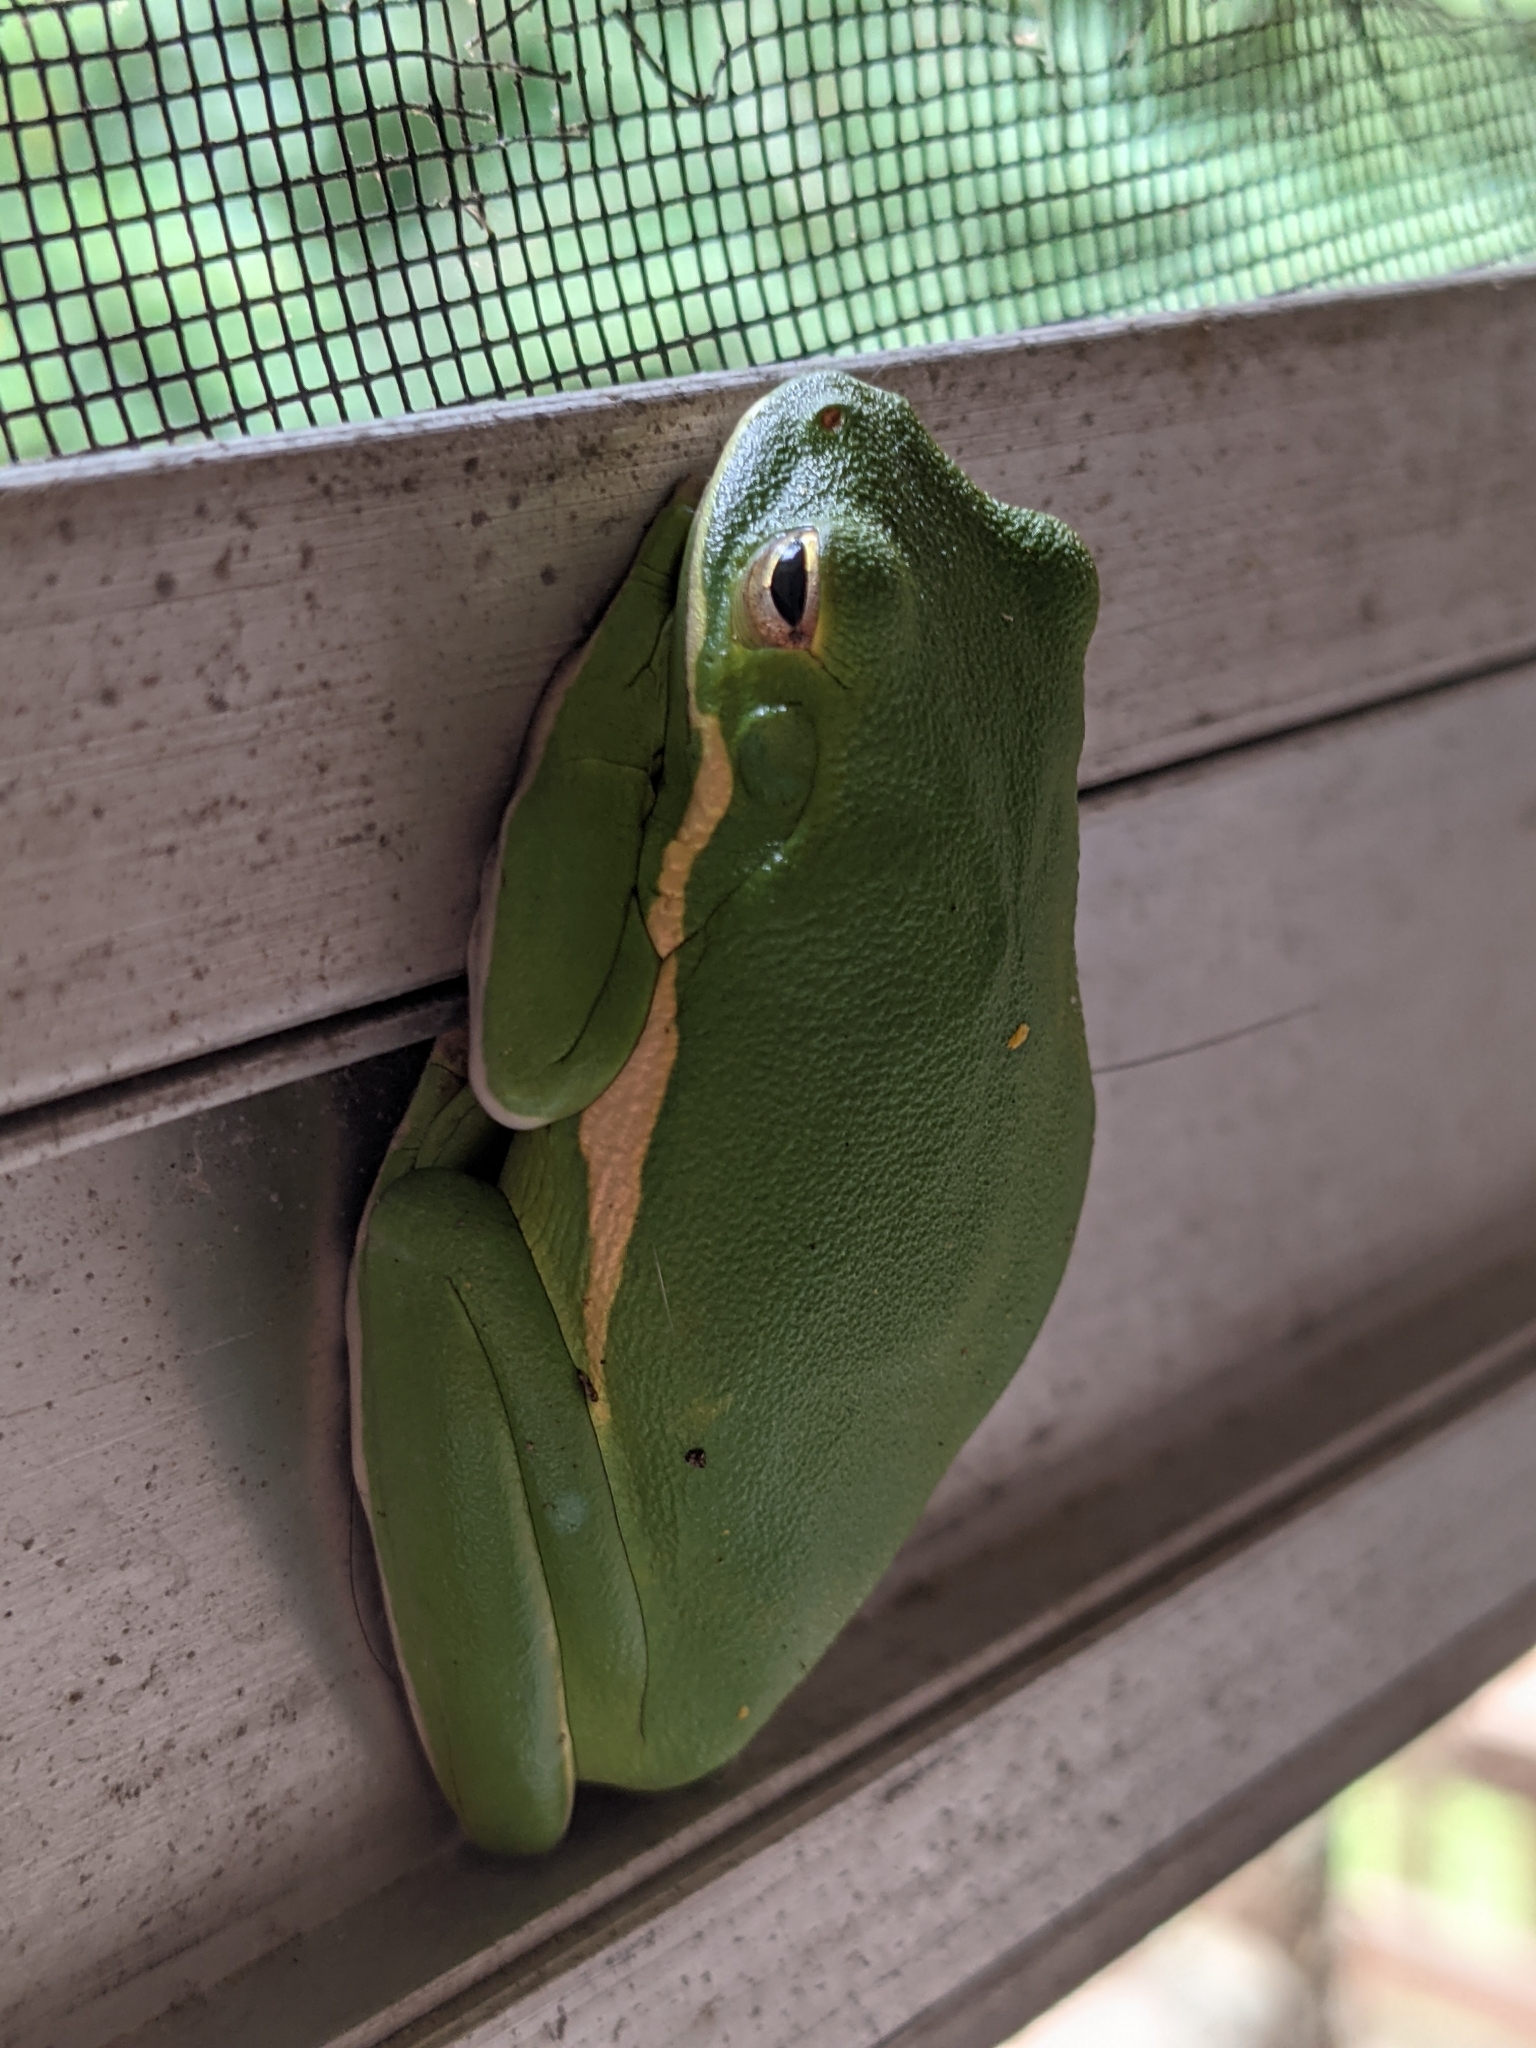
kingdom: Animalia
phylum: Chordata
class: Amphibia
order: Anura
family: Hylidae
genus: Dryophytes
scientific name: Dryophytes cinereus
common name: Green treefrog
